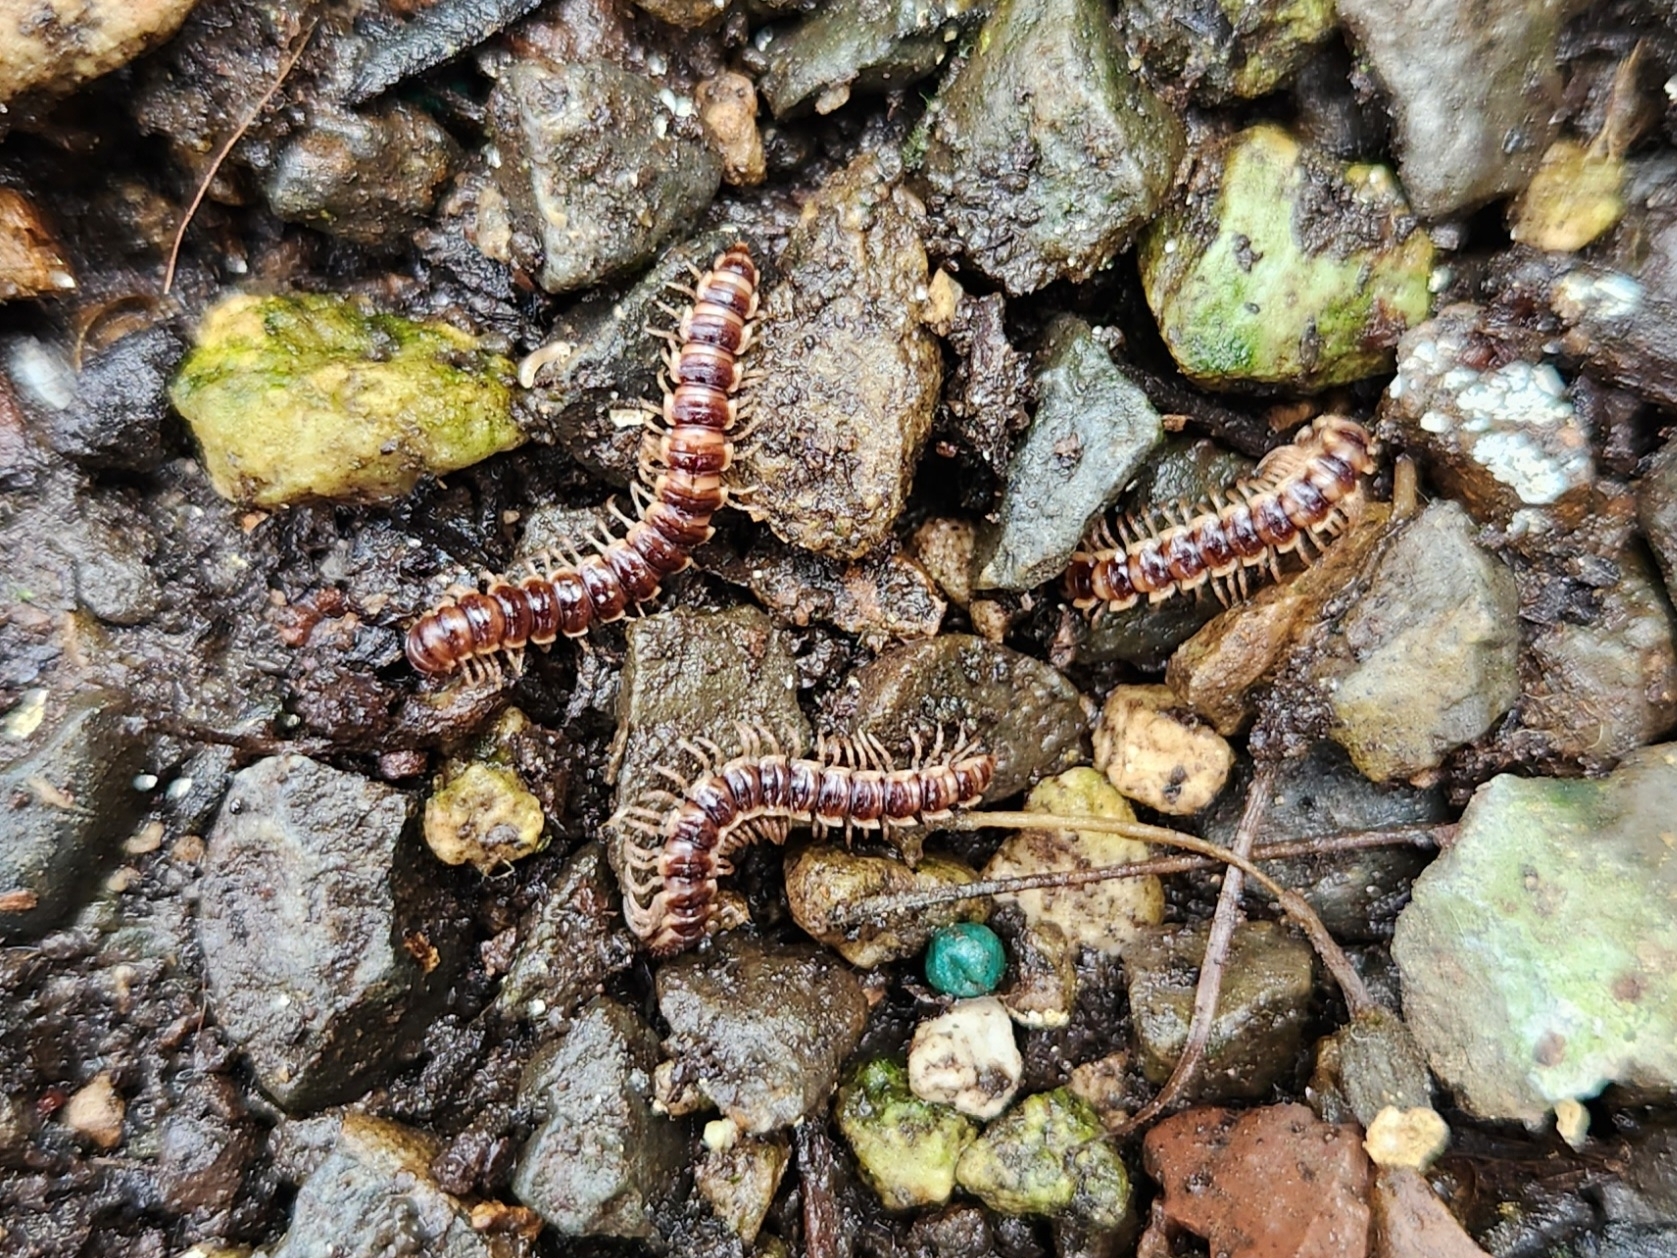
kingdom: Animalia
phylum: Arthropoda
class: Diplopoda
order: Polydesmida
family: Paradoxosomatidae
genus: Oxidus
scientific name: Oxidus gracilis
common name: Greenhouse millipede
